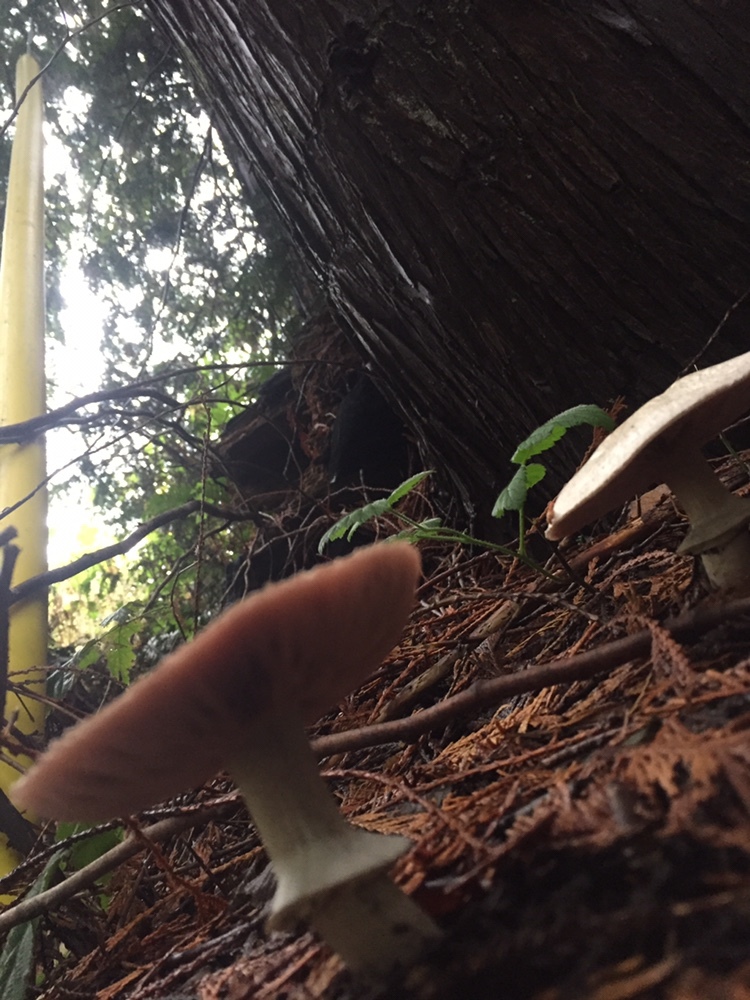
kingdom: Fungi
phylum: Basidiomycota
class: Agaricomycetes
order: Agaricales
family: Agaricaceae
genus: Agaricus
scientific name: Agaricus subrutilescens
